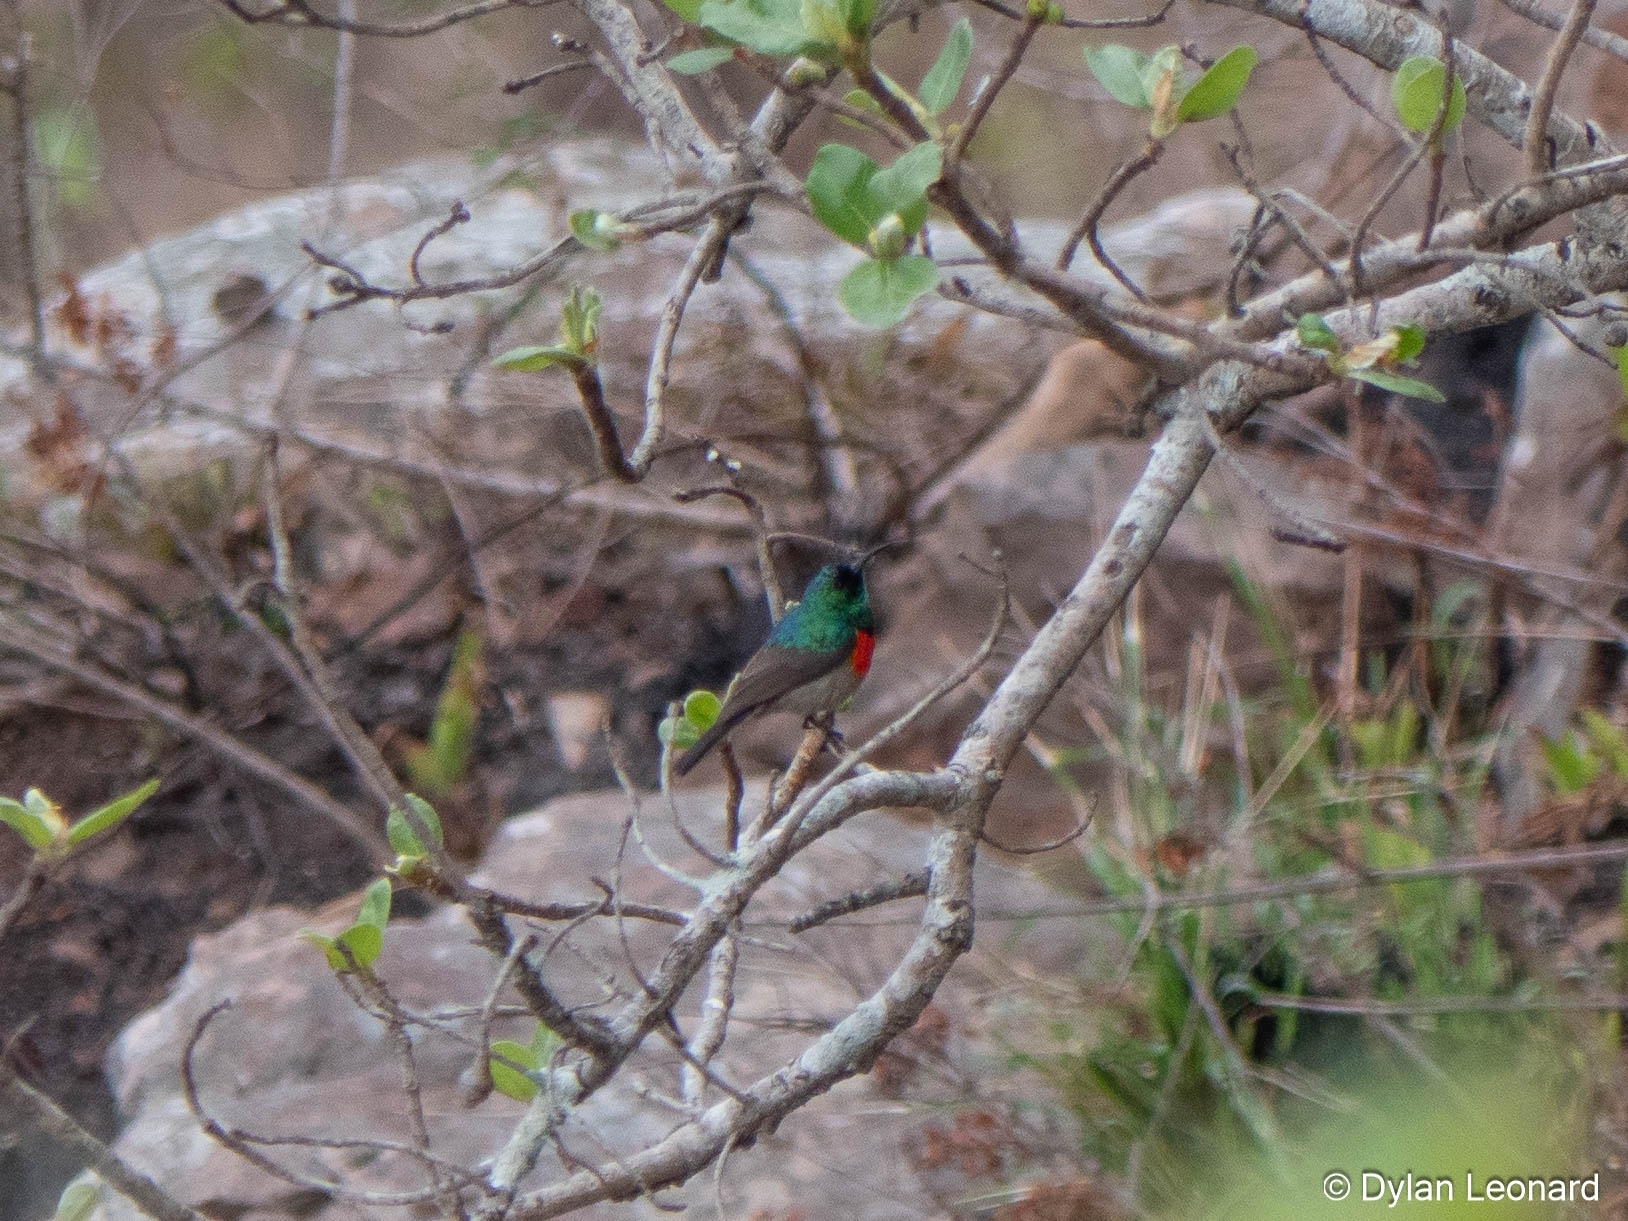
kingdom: Animalia
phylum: Chordata
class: Aves
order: Passeriformes
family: Nectariniidae
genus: Cinnyris
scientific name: Cinnyris afer
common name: Greater double-collared sunbird
